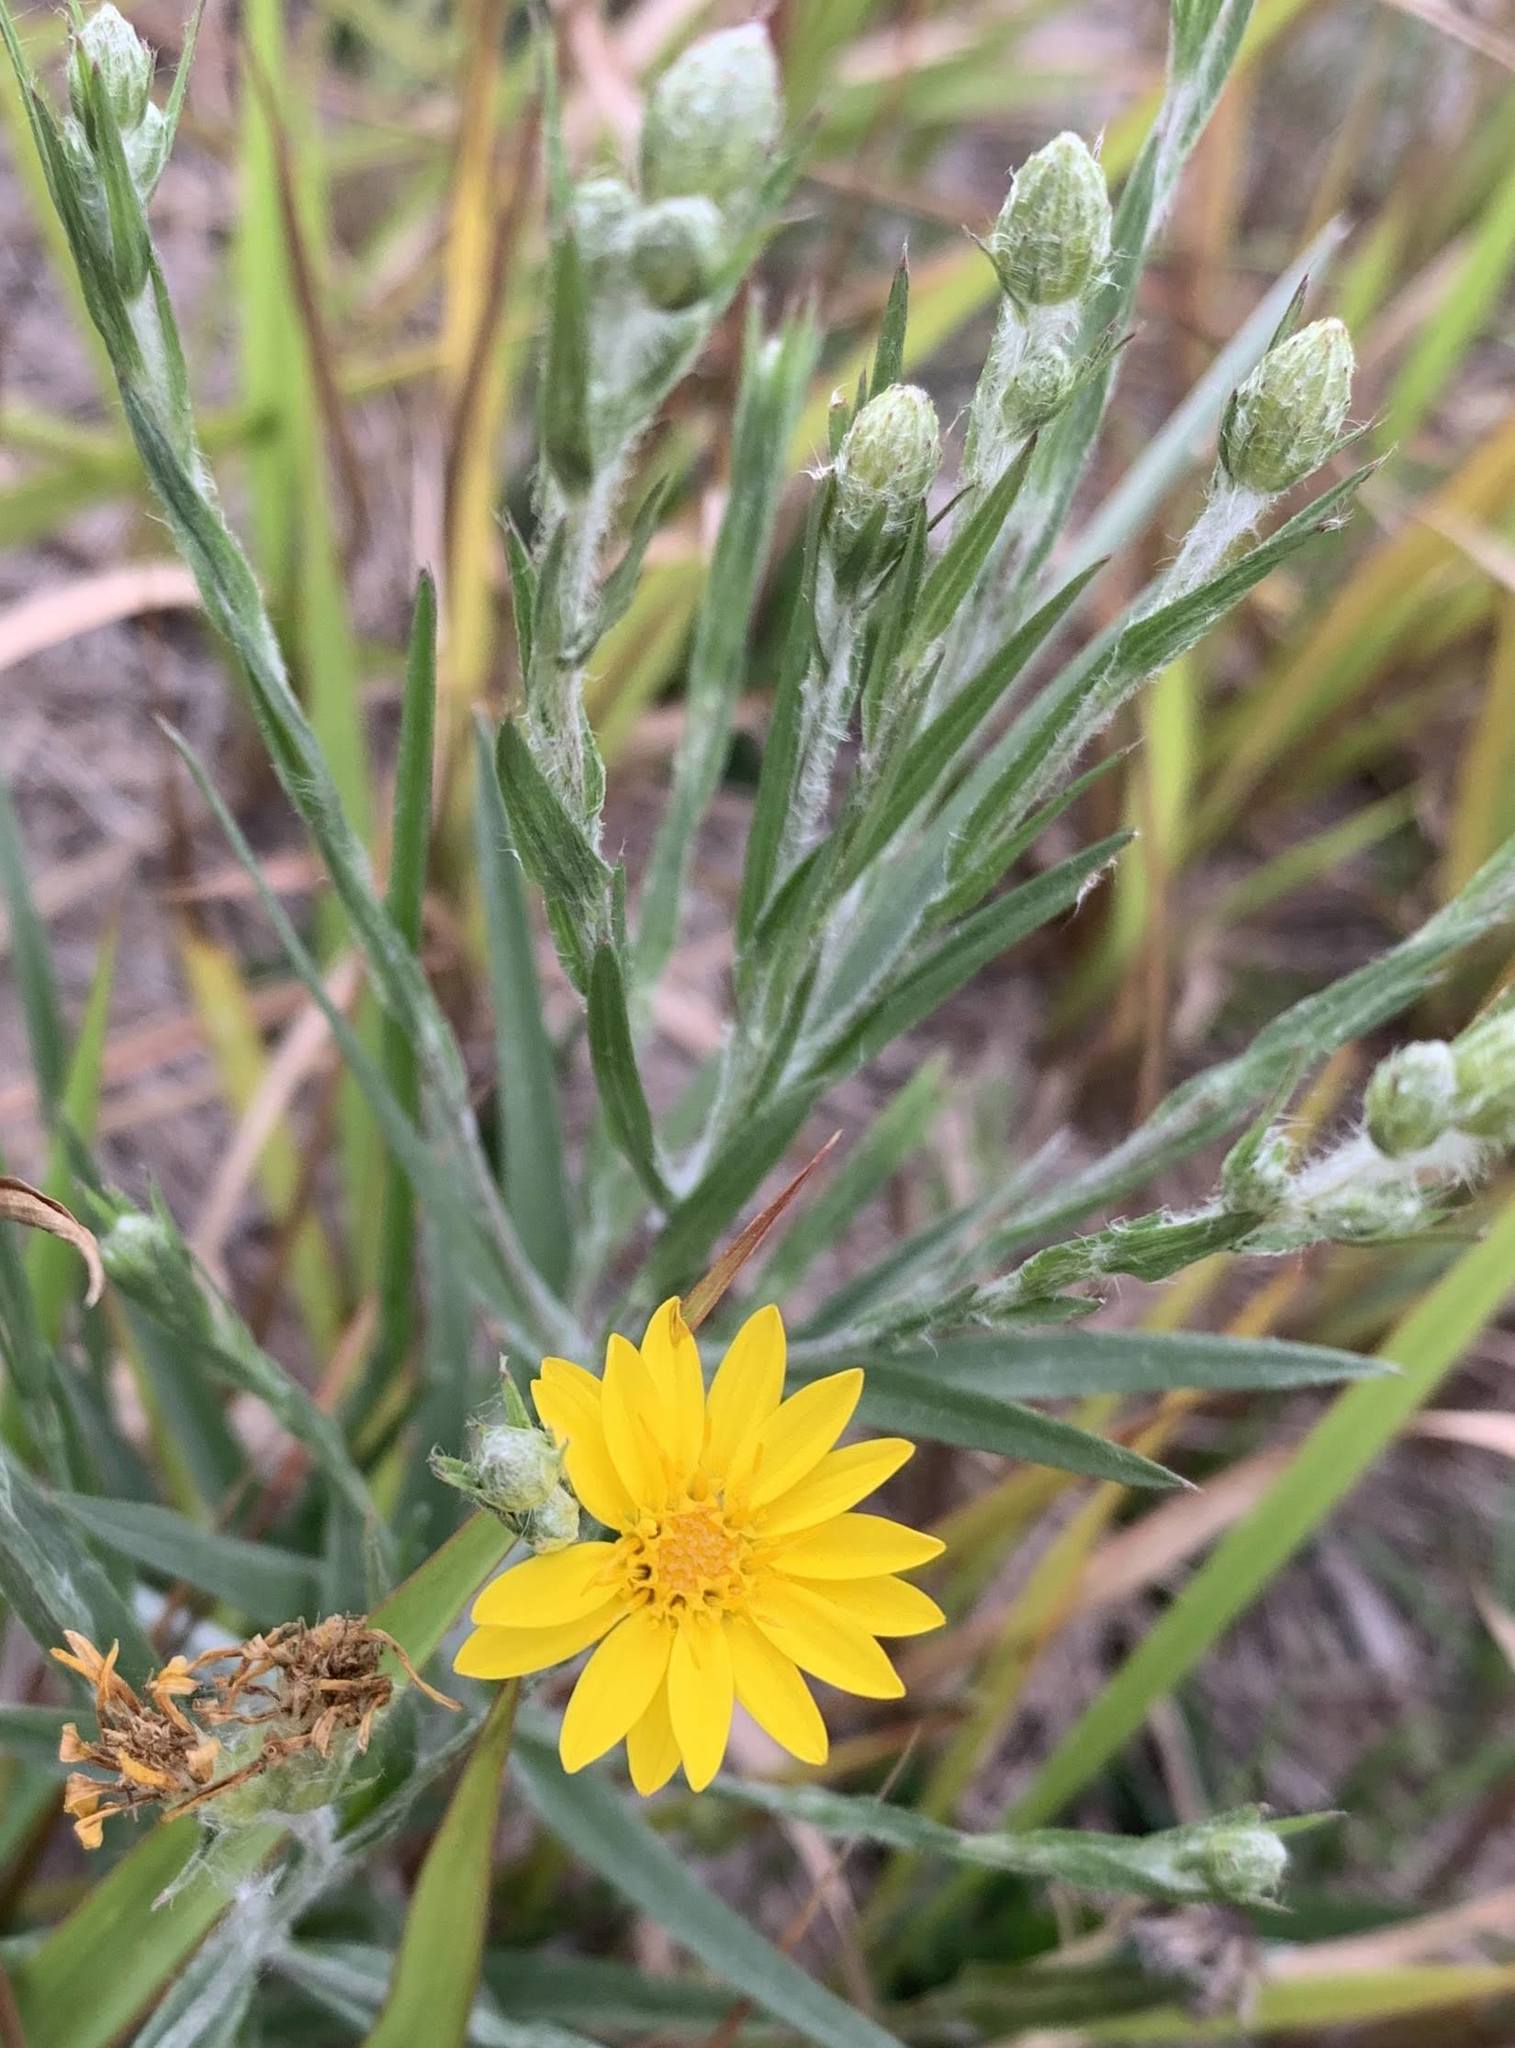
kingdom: Plantae
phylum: Tracheophyta
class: Magnoliopsida
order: Asterales
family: Asteraceae
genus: Pityopsis
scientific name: Pityopsis graminifolia
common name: Grass-leaf golden-aster
